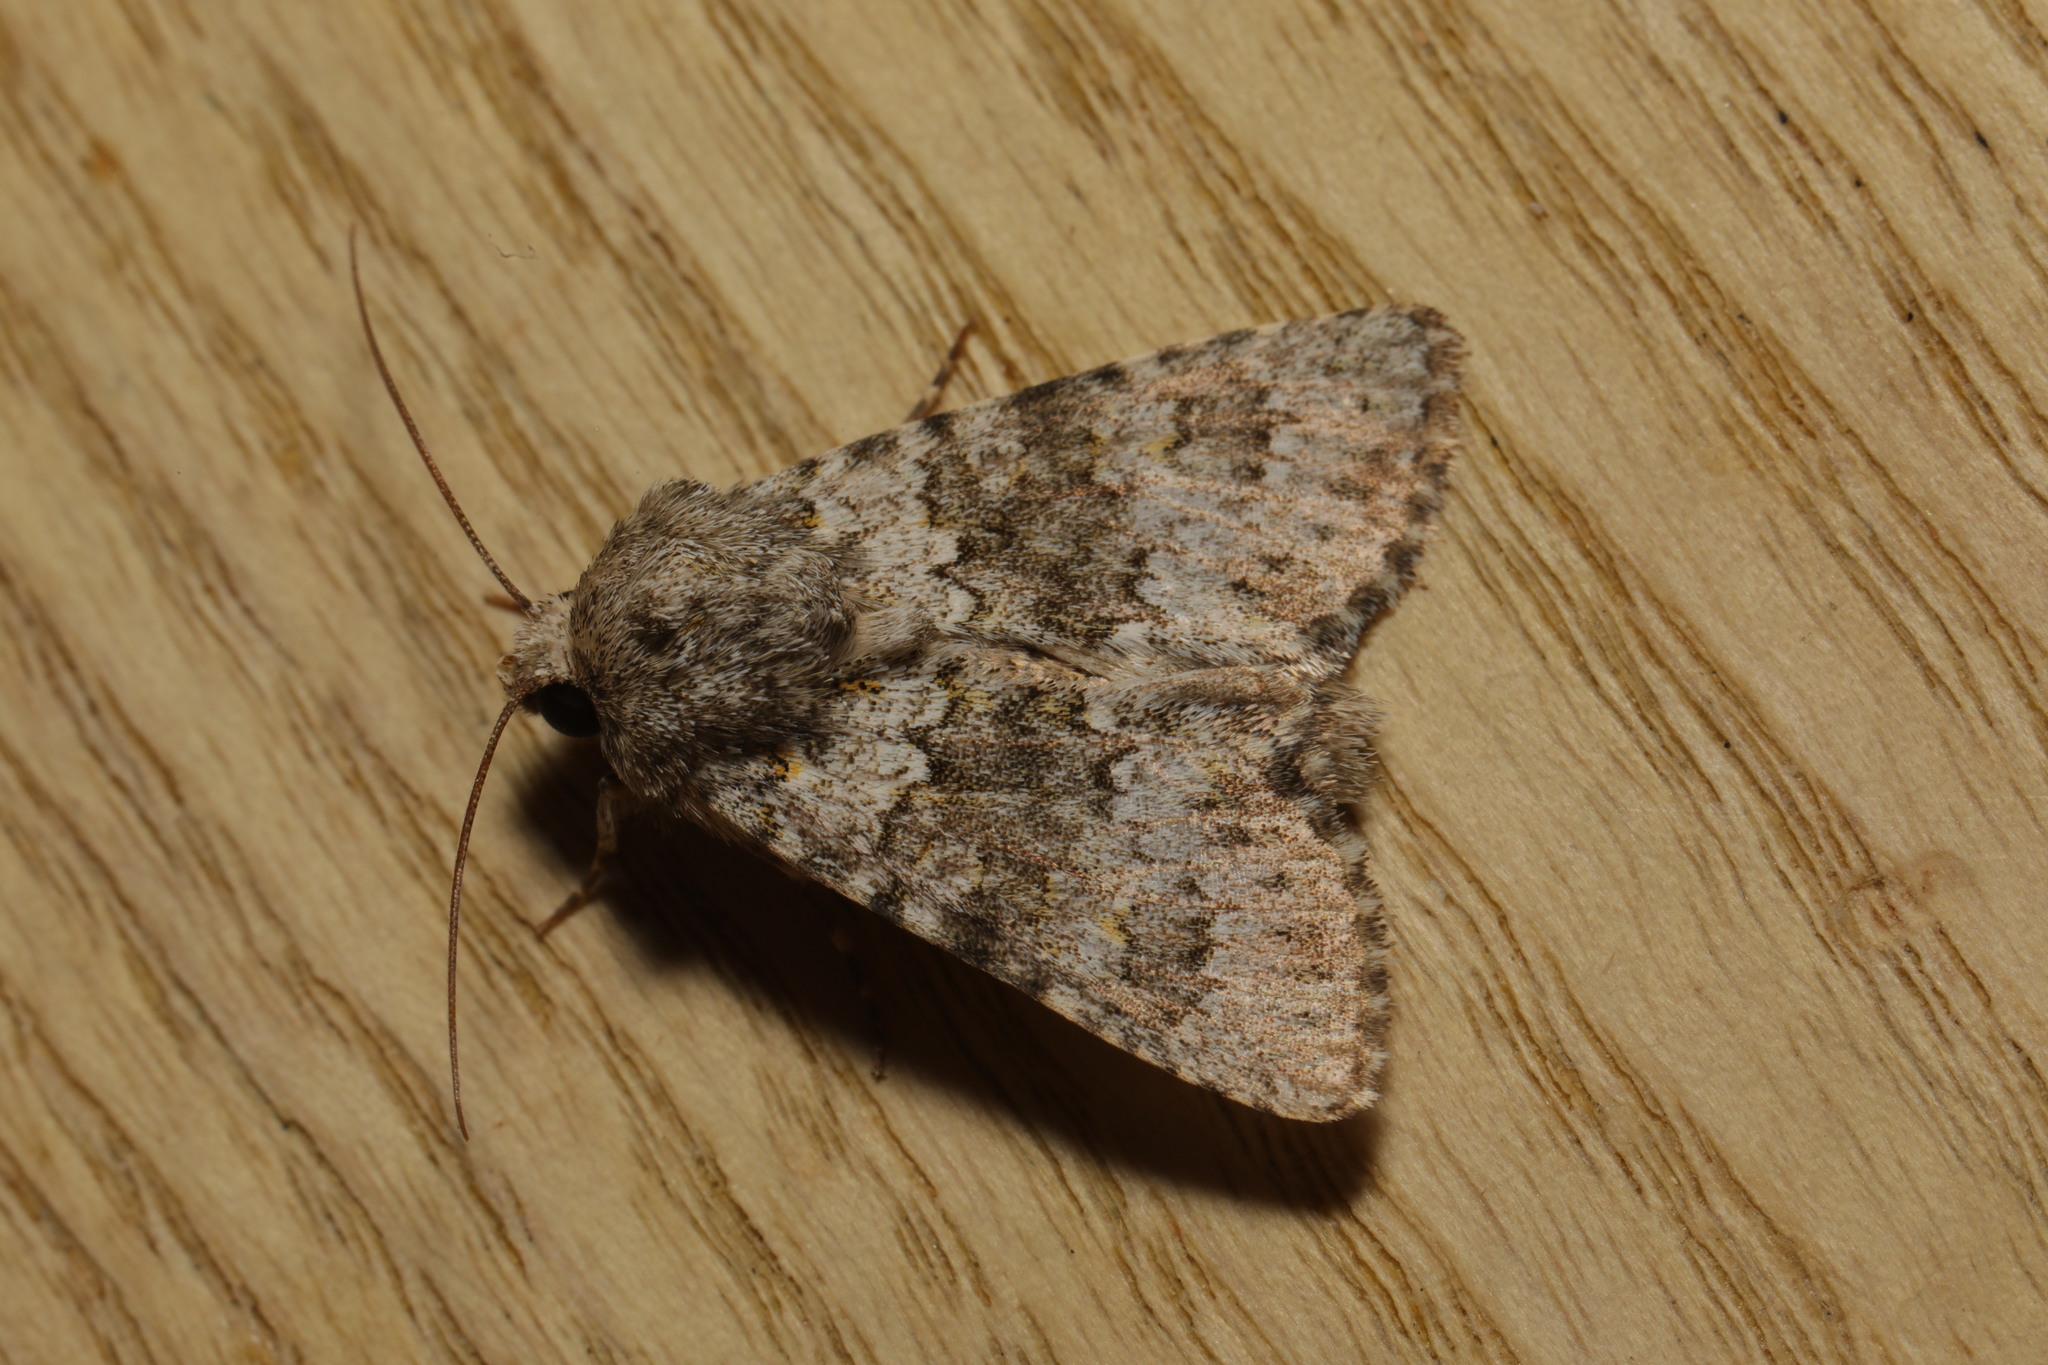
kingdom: Animalia
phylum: Arthropoda
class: Insecta
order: Lepidoptera
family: Noctuidae
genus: Hecatera
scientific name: Hecatera dysodea
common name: Small ranunculus
